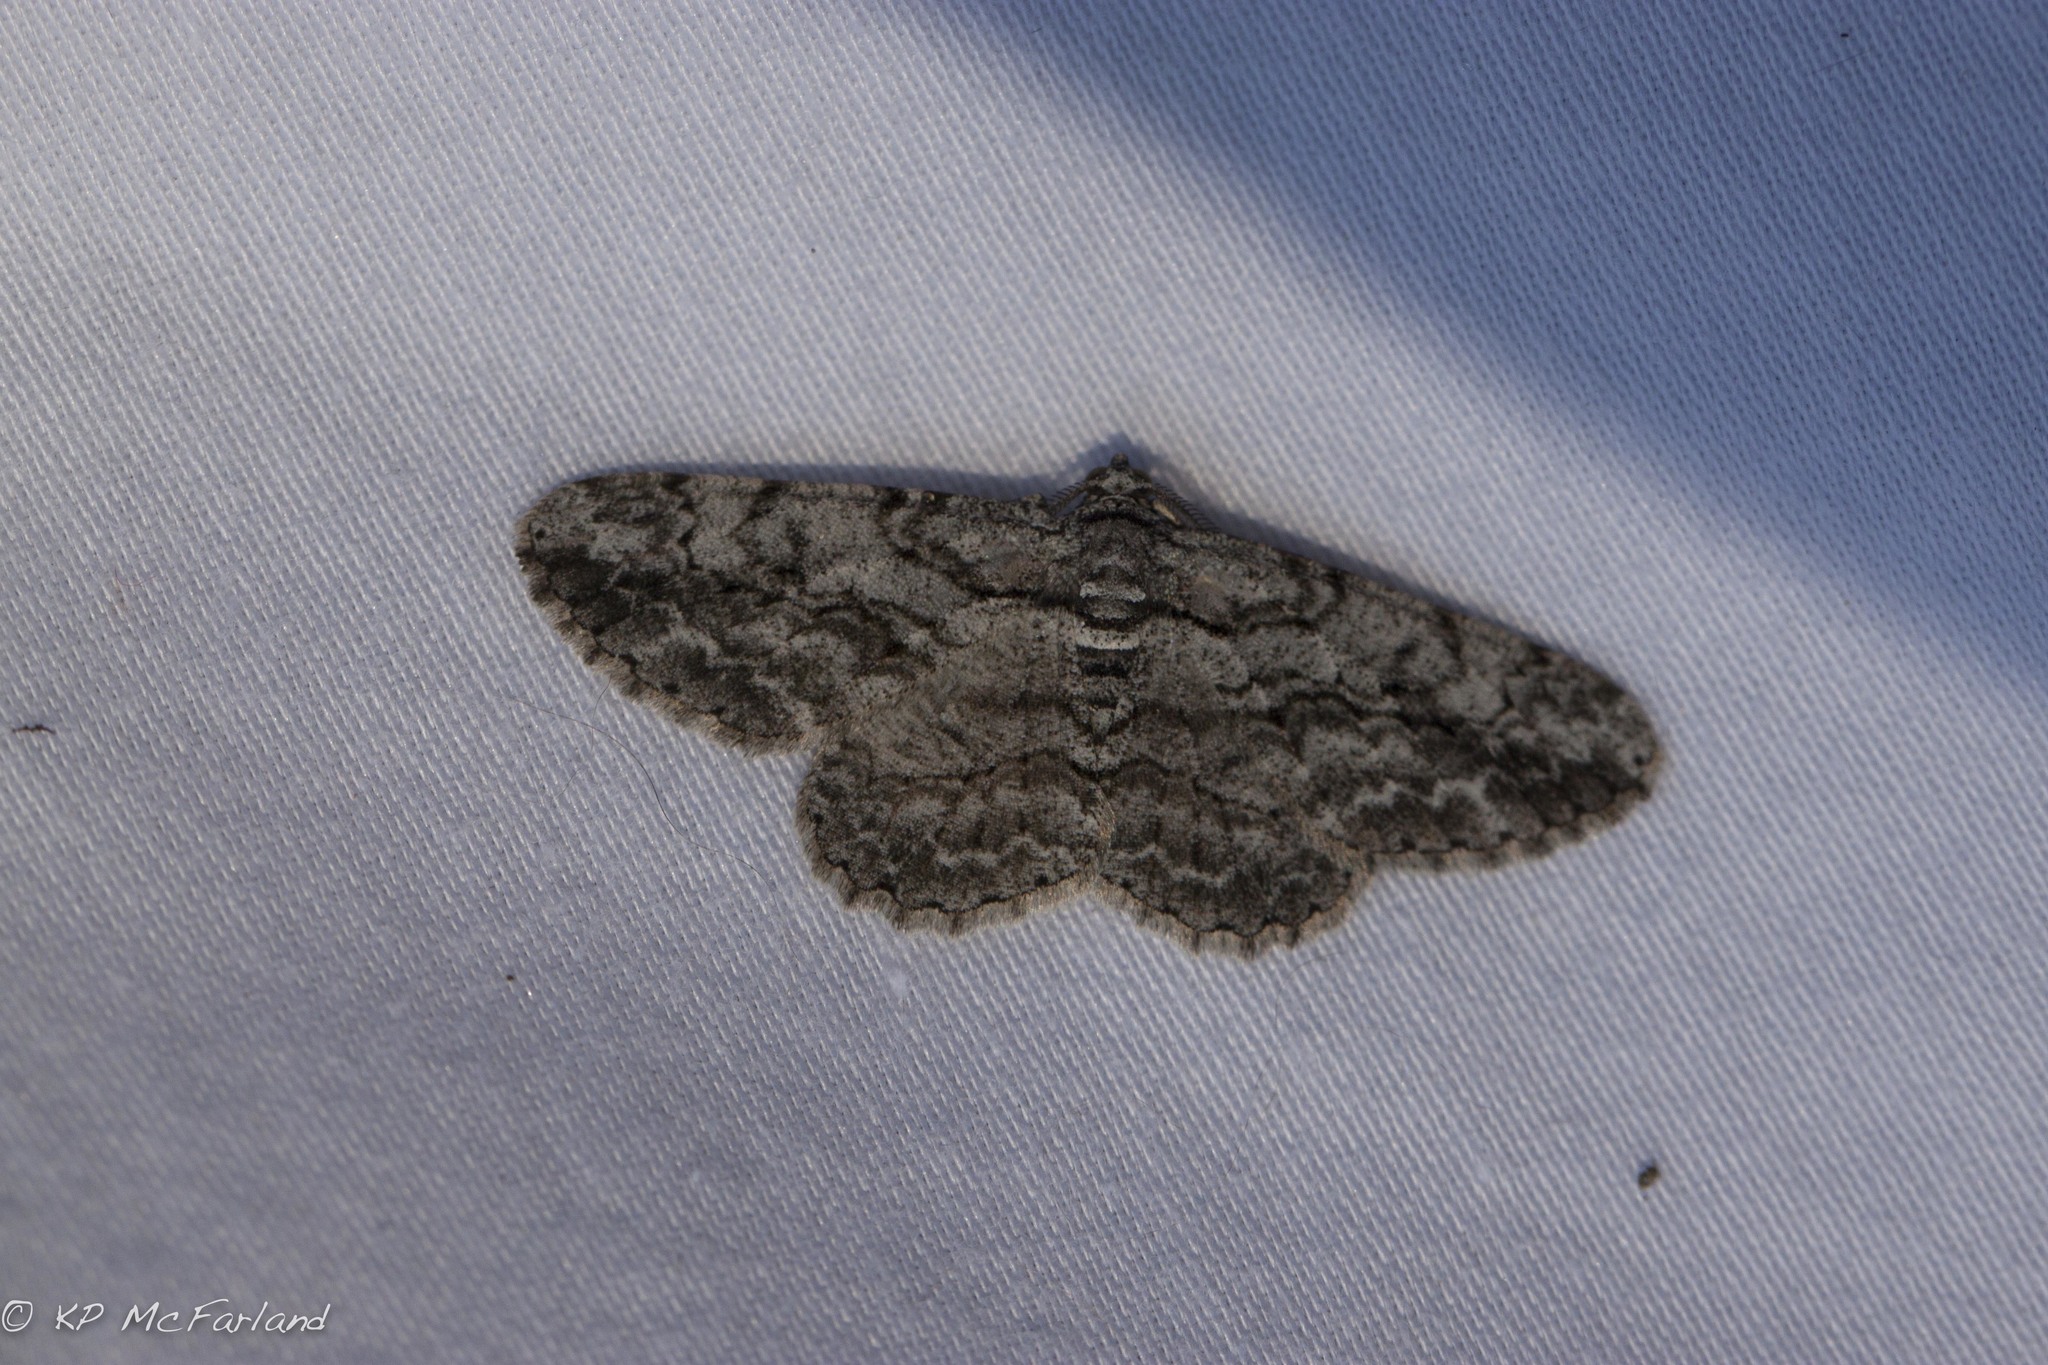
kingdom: Animalia
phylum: Arthropoda
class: Insecta
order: Lepidoptera
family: Geometridae
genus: Anavitrinella
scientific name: Anavitrinella pampinaria
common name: Common gray
